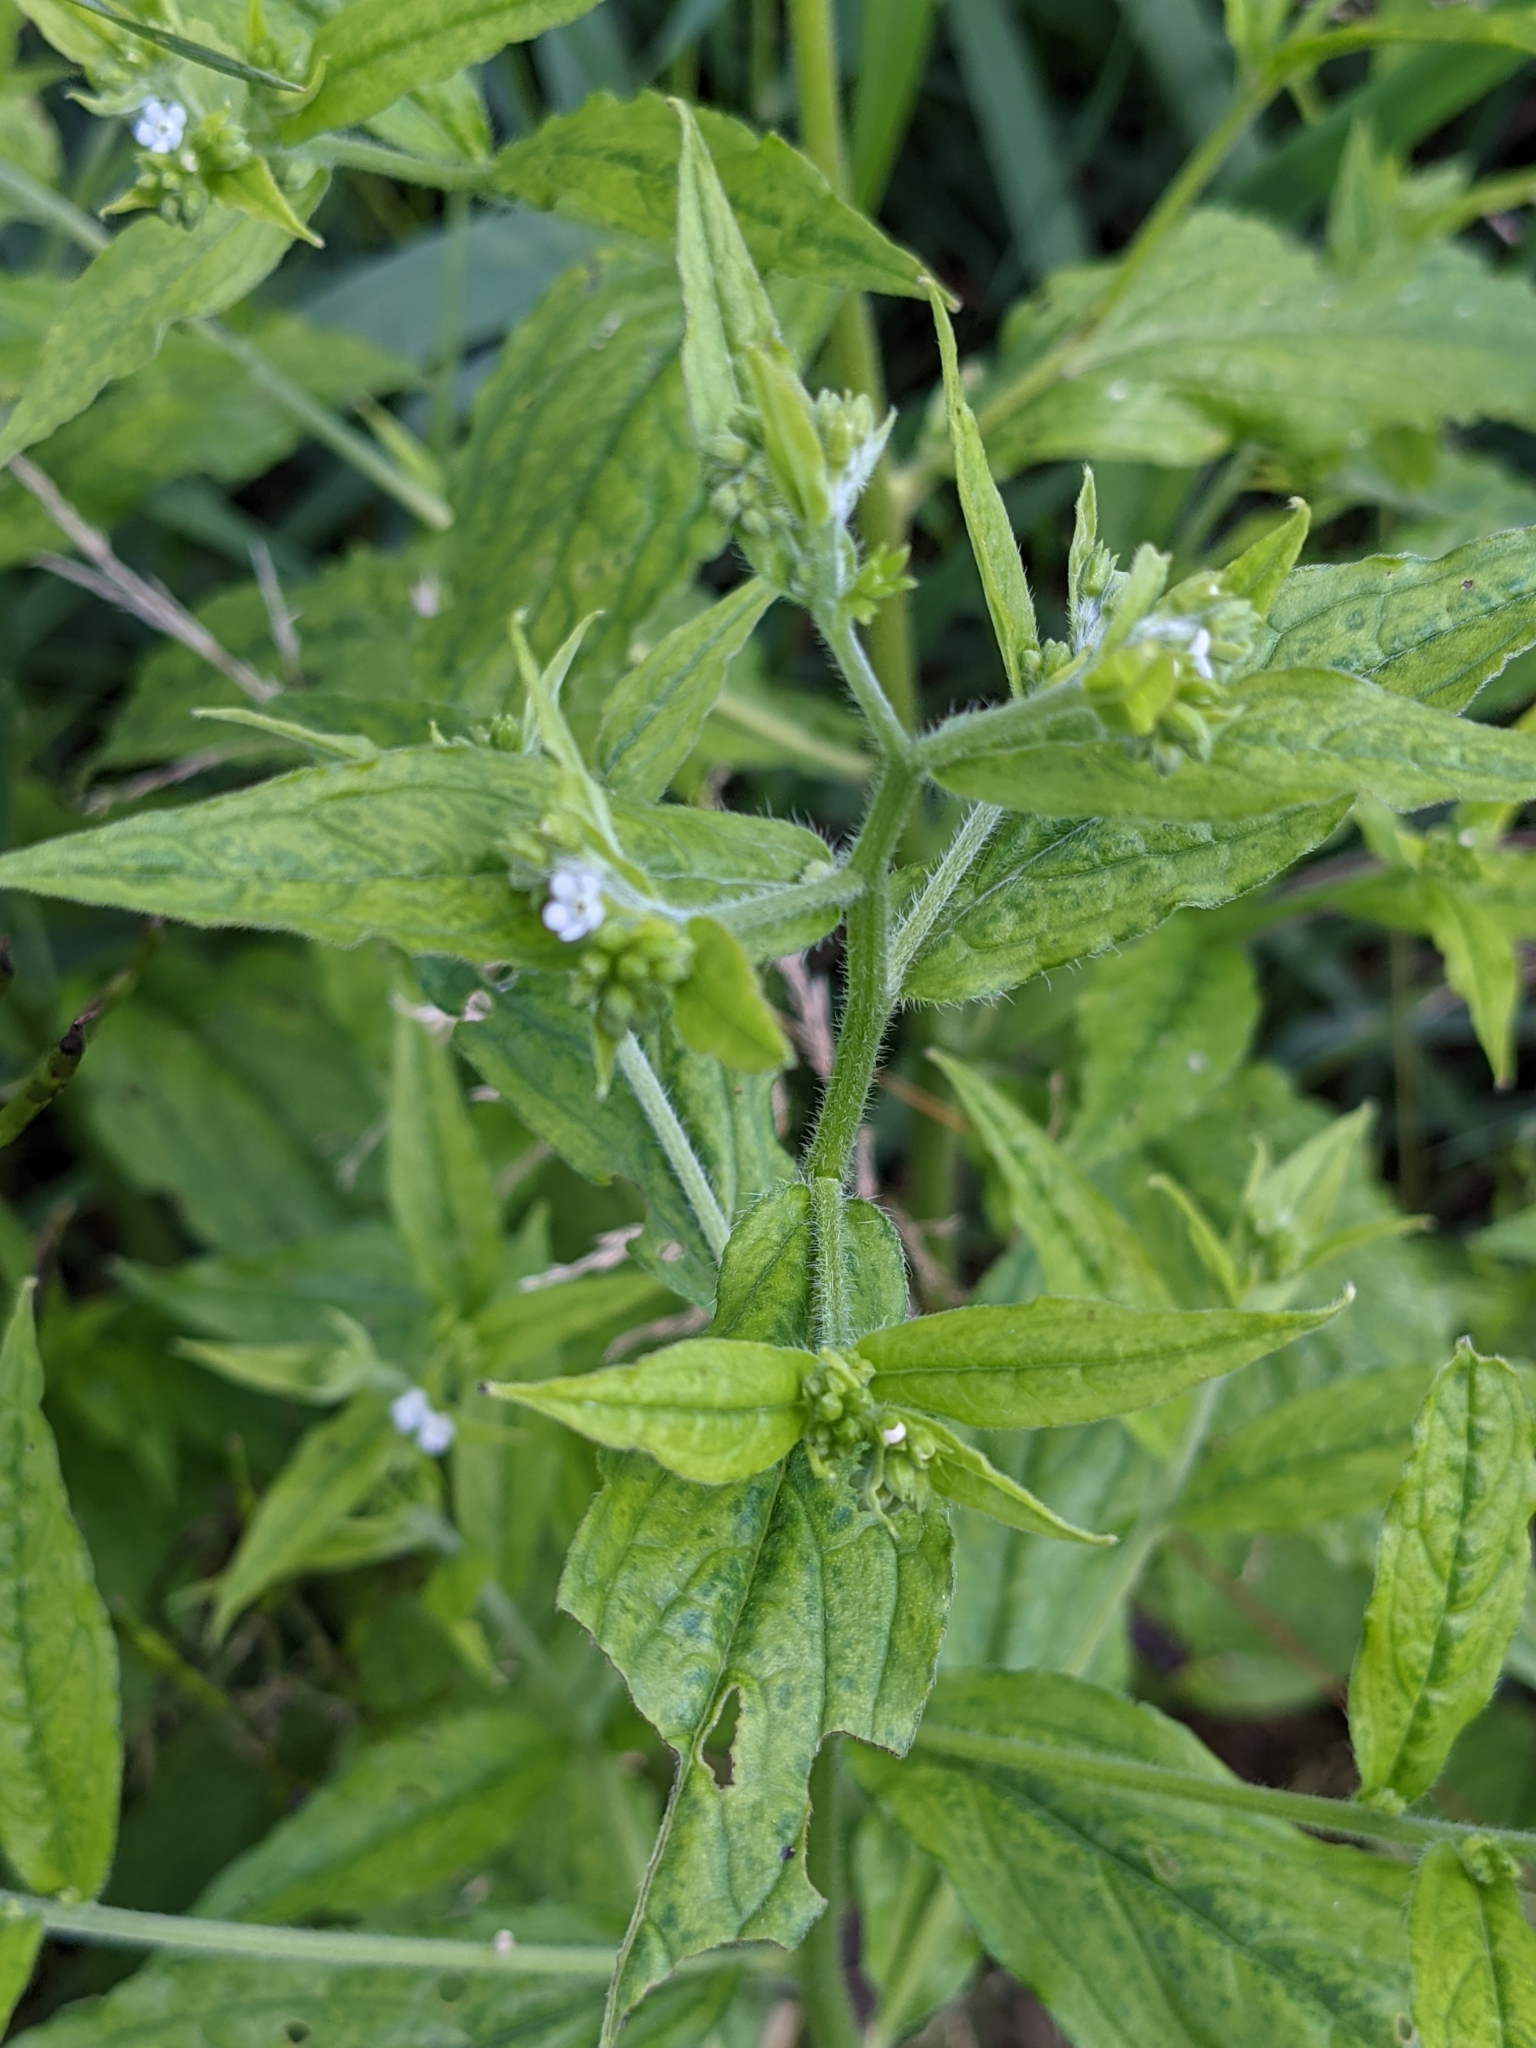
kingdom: Plantae
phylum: Tracheophyta
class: Magnoliopsida
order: Boraginales
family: Boraginaceae
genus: Hackelia
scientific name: Hackelia virginiana
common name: Beggar's-lice
